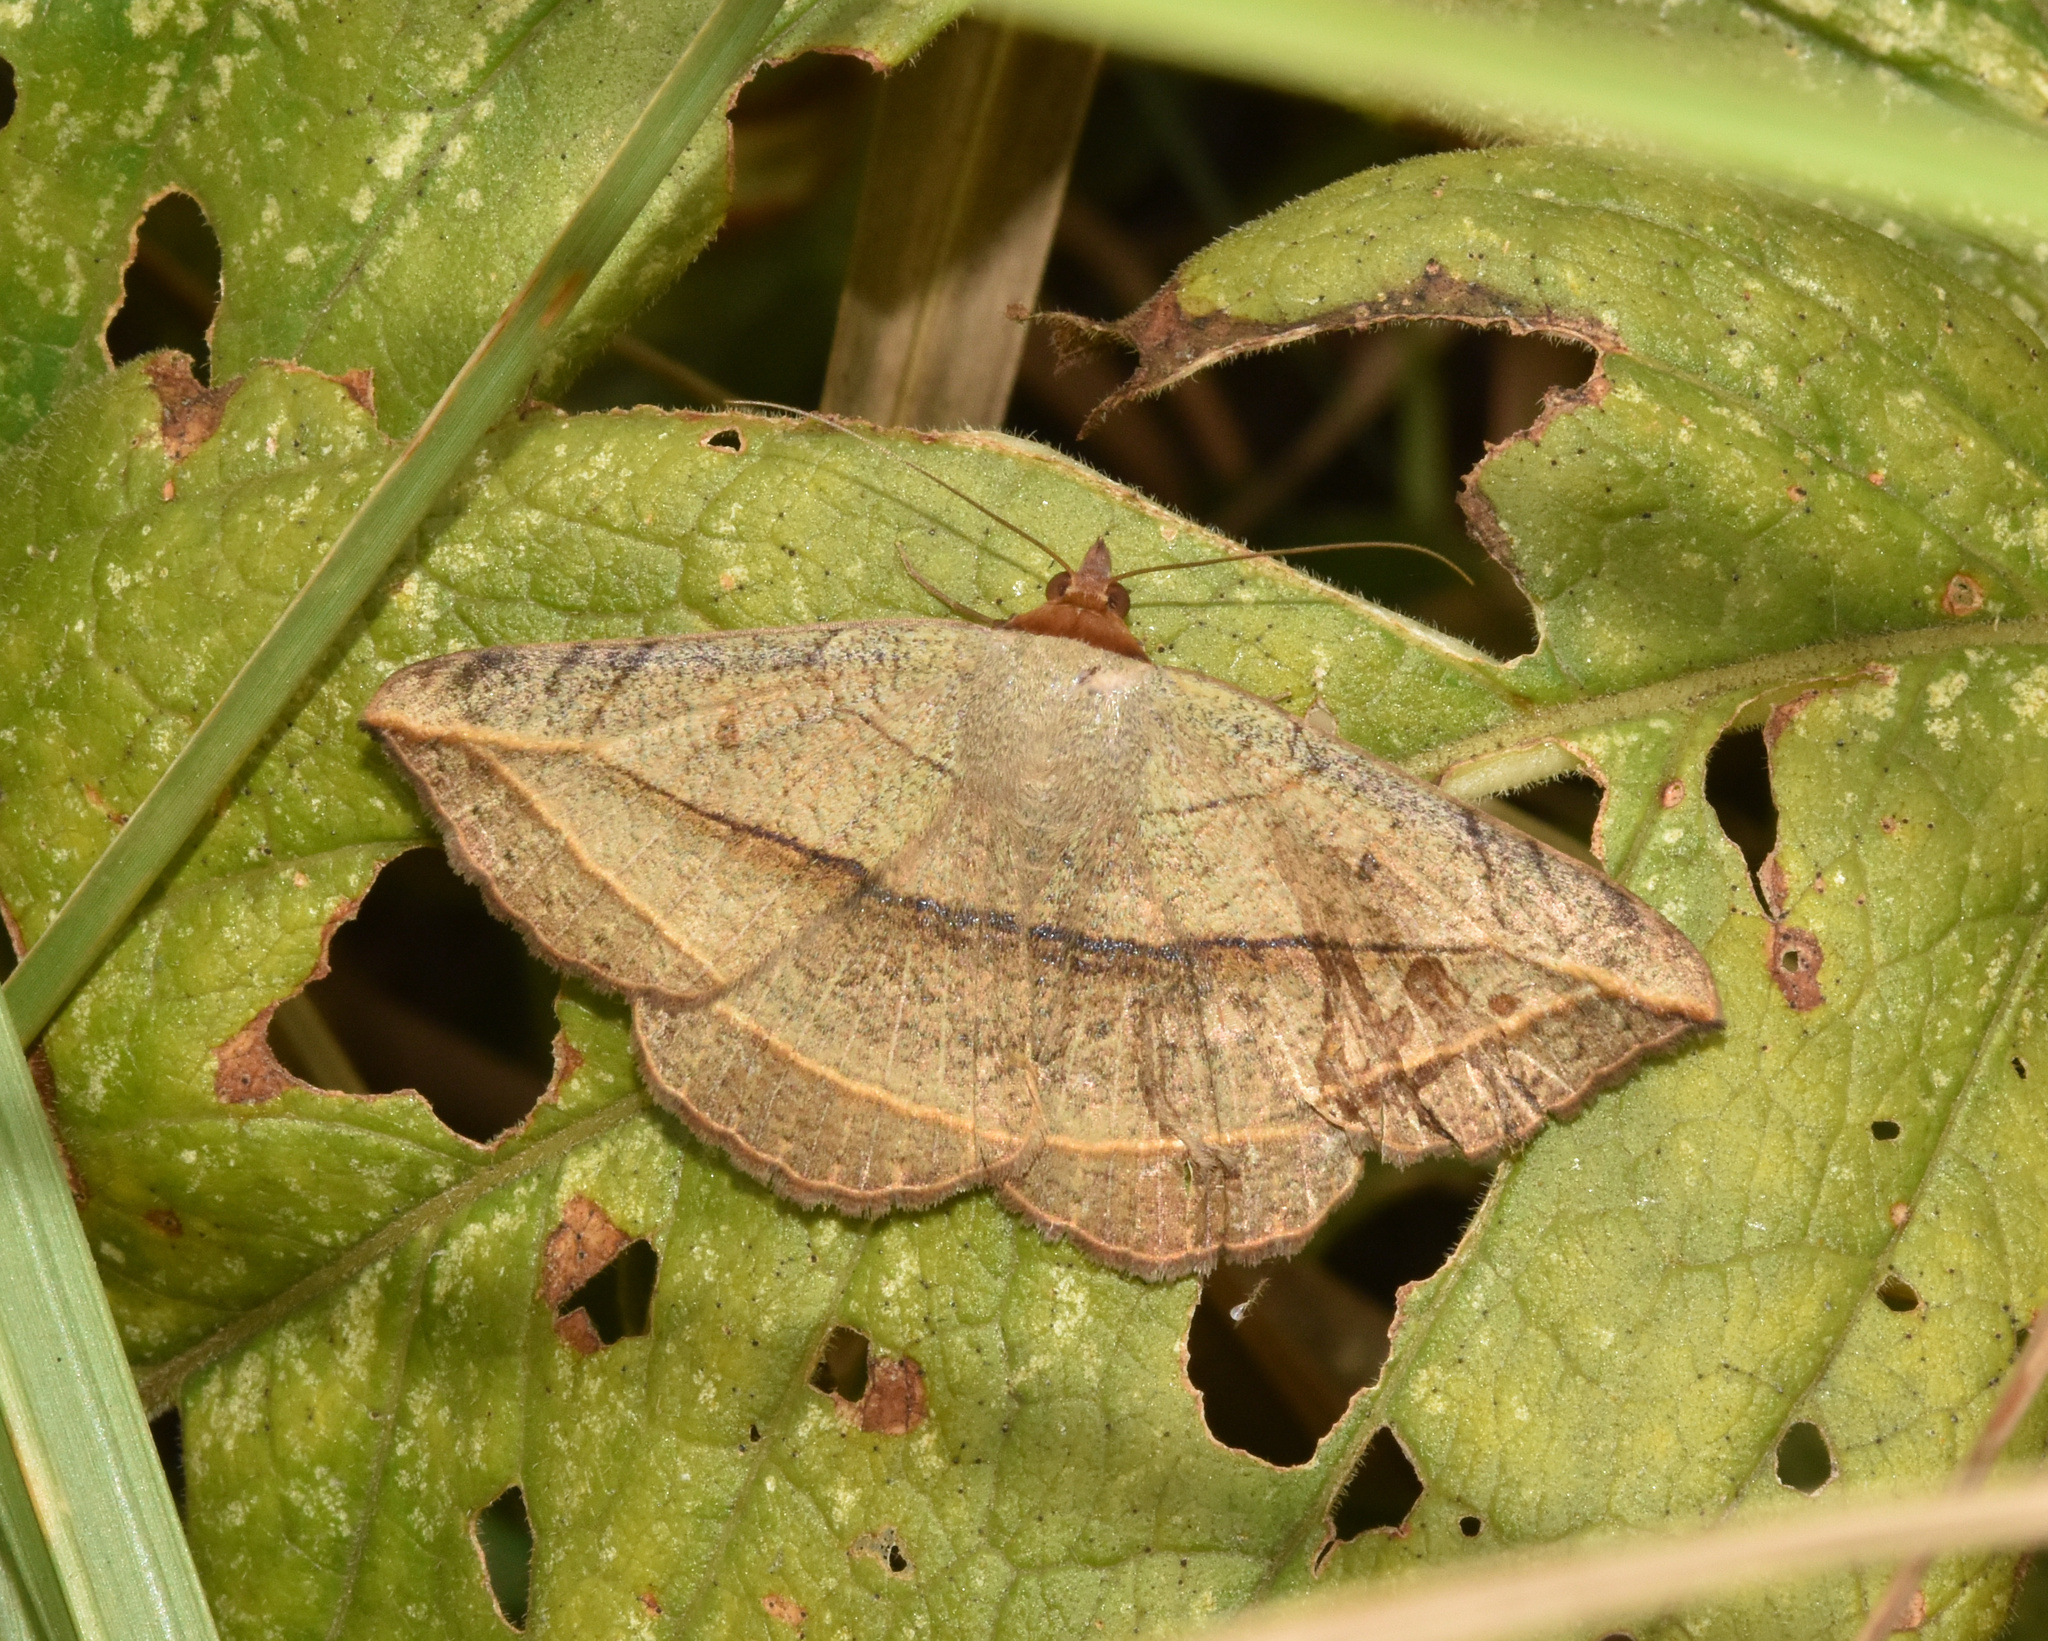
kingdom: Animalia
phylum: Arthropoda
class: Insecta
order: Lepidoptera
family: Erebidae
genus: Entomogramma
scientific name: Entomogramma pardus
